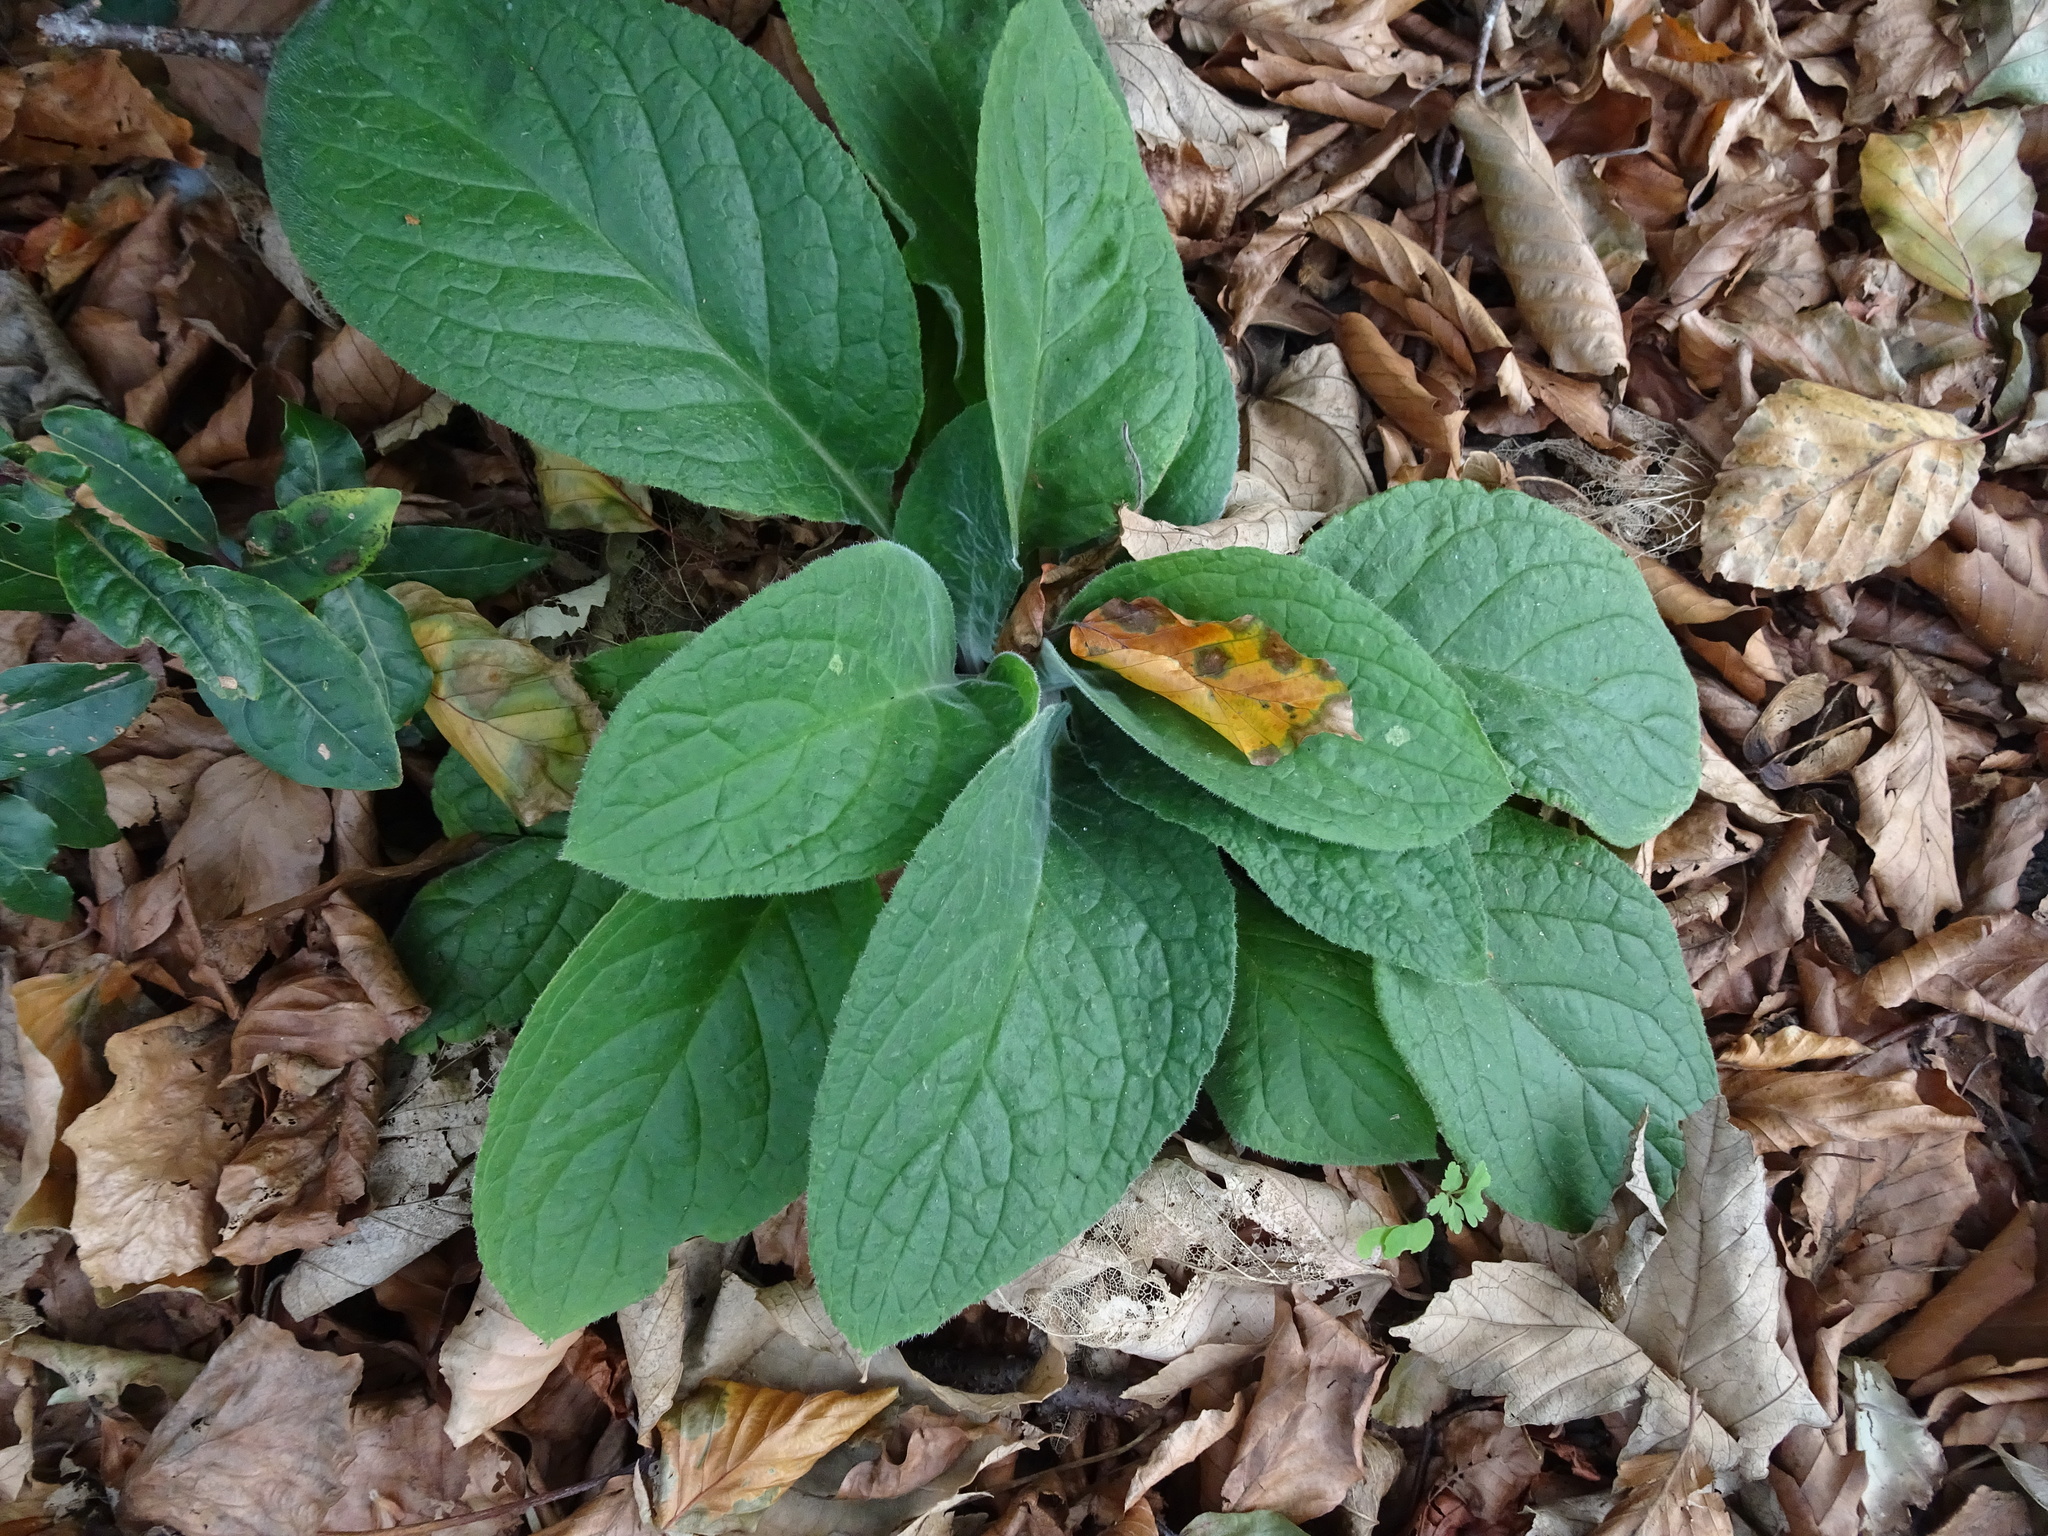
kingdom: Plantae
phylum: Tracheophyta
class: Magnoliopsida
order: Lamiales
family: Plantaginaceae
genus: Digitalis
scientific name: Digitalis purpurea
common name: Foxglove
